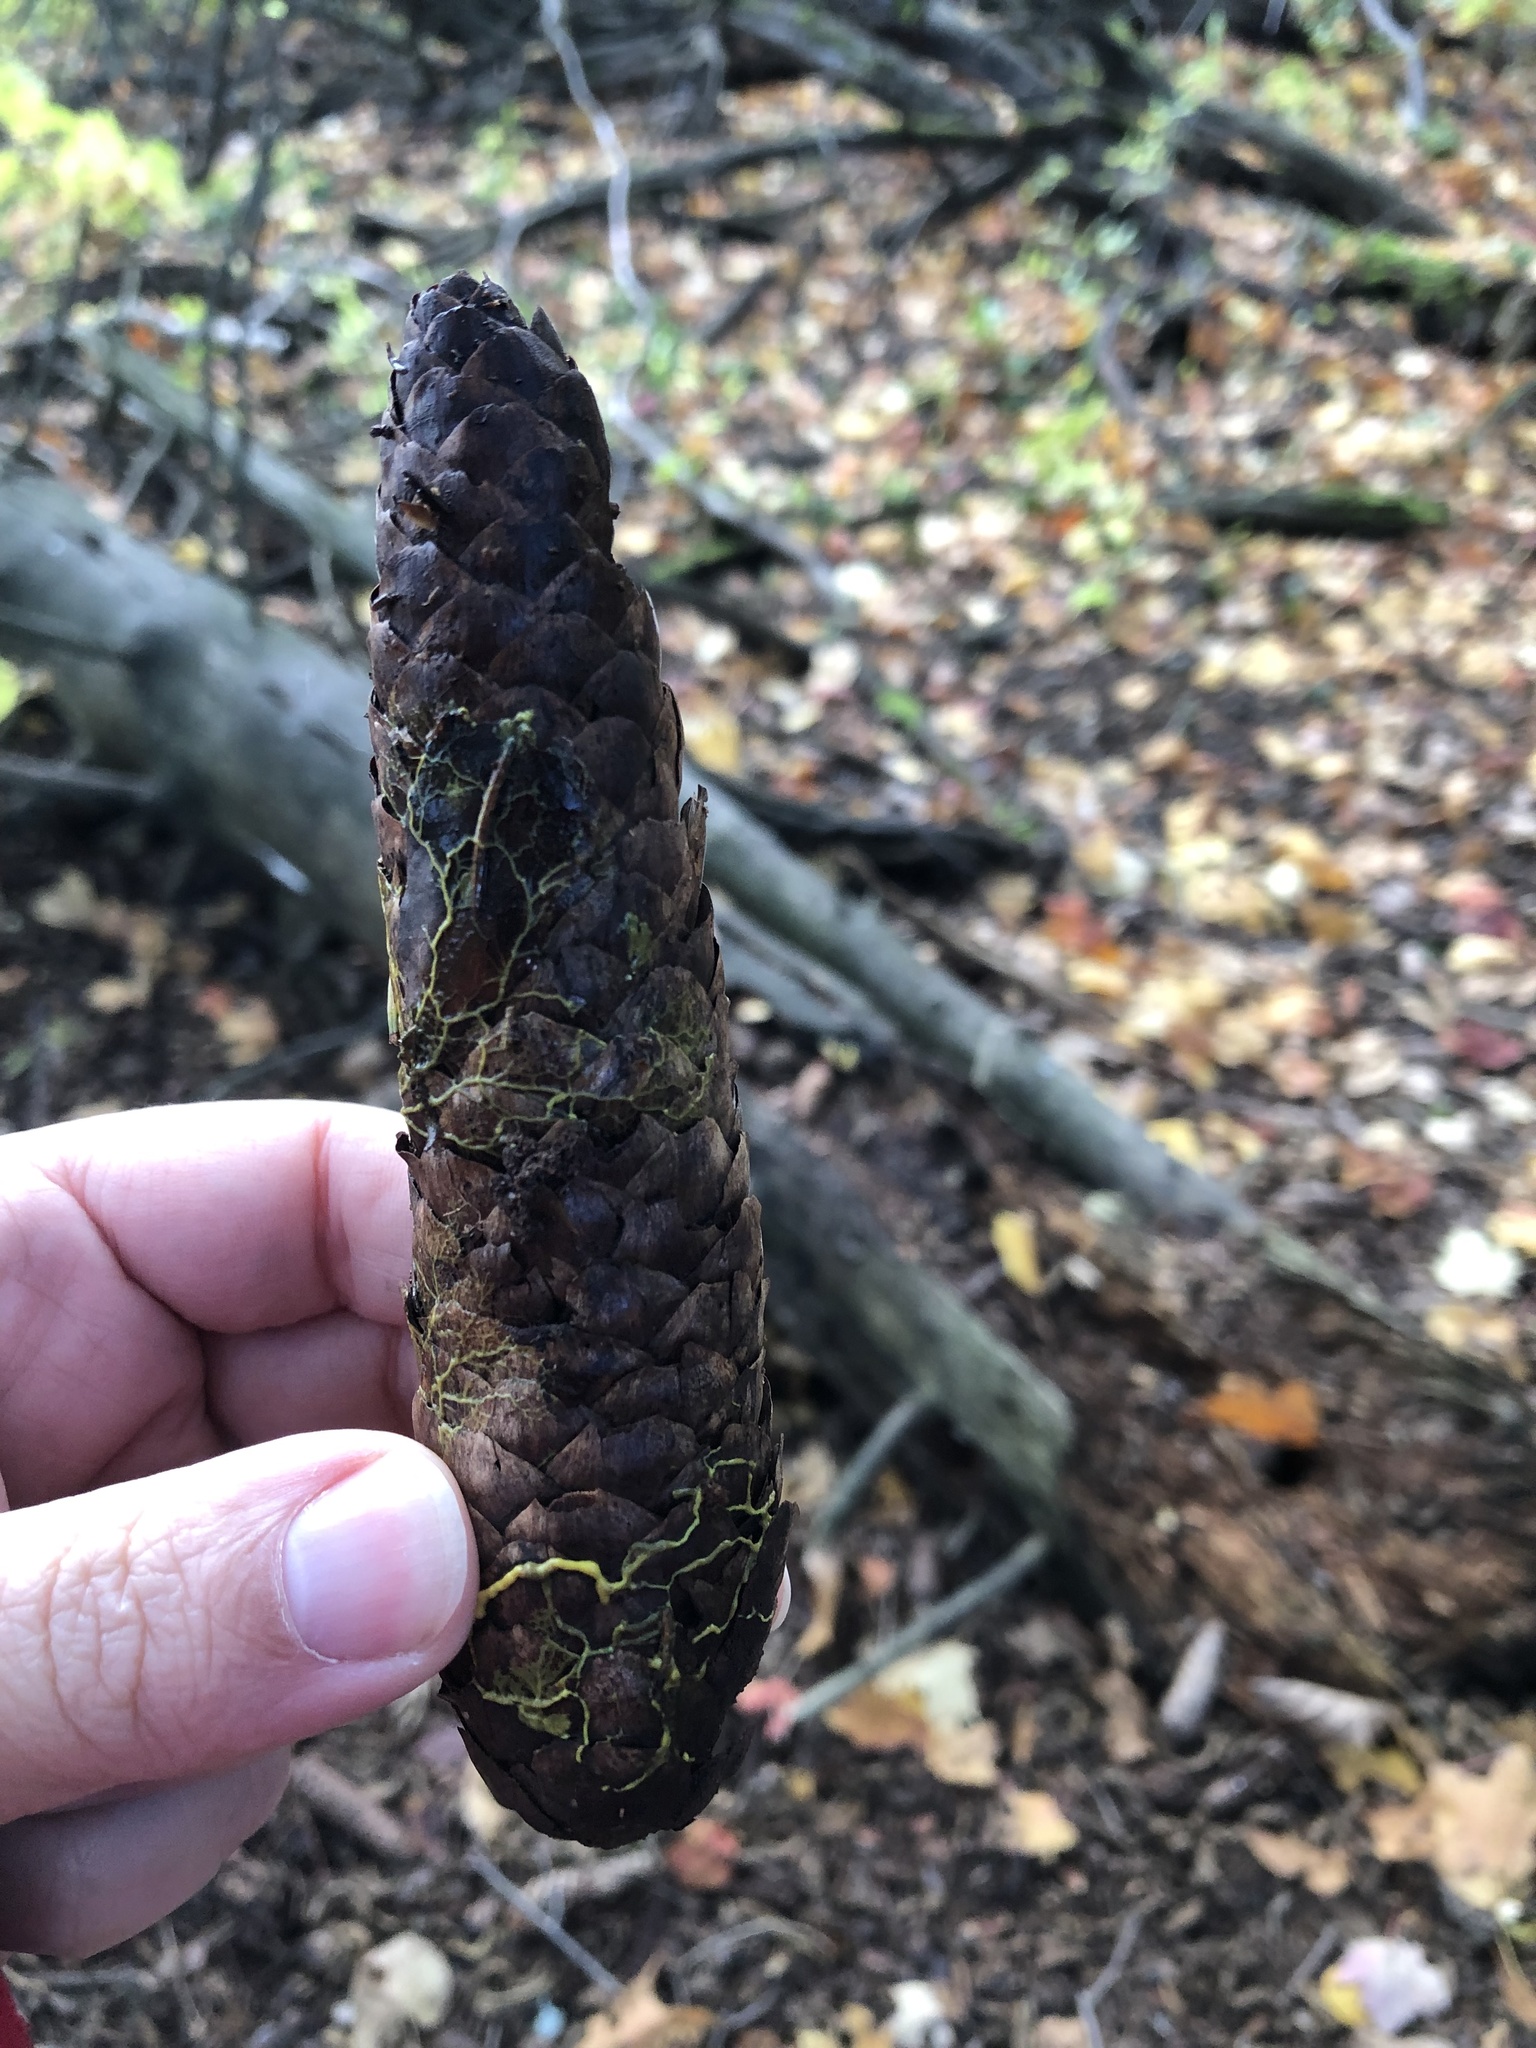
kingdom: Plantae
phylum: Tracheophyta
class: Pinopsida
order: Pinales
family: Pinaceae
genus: Picea
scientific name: Picea abies
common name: Norway spruce
